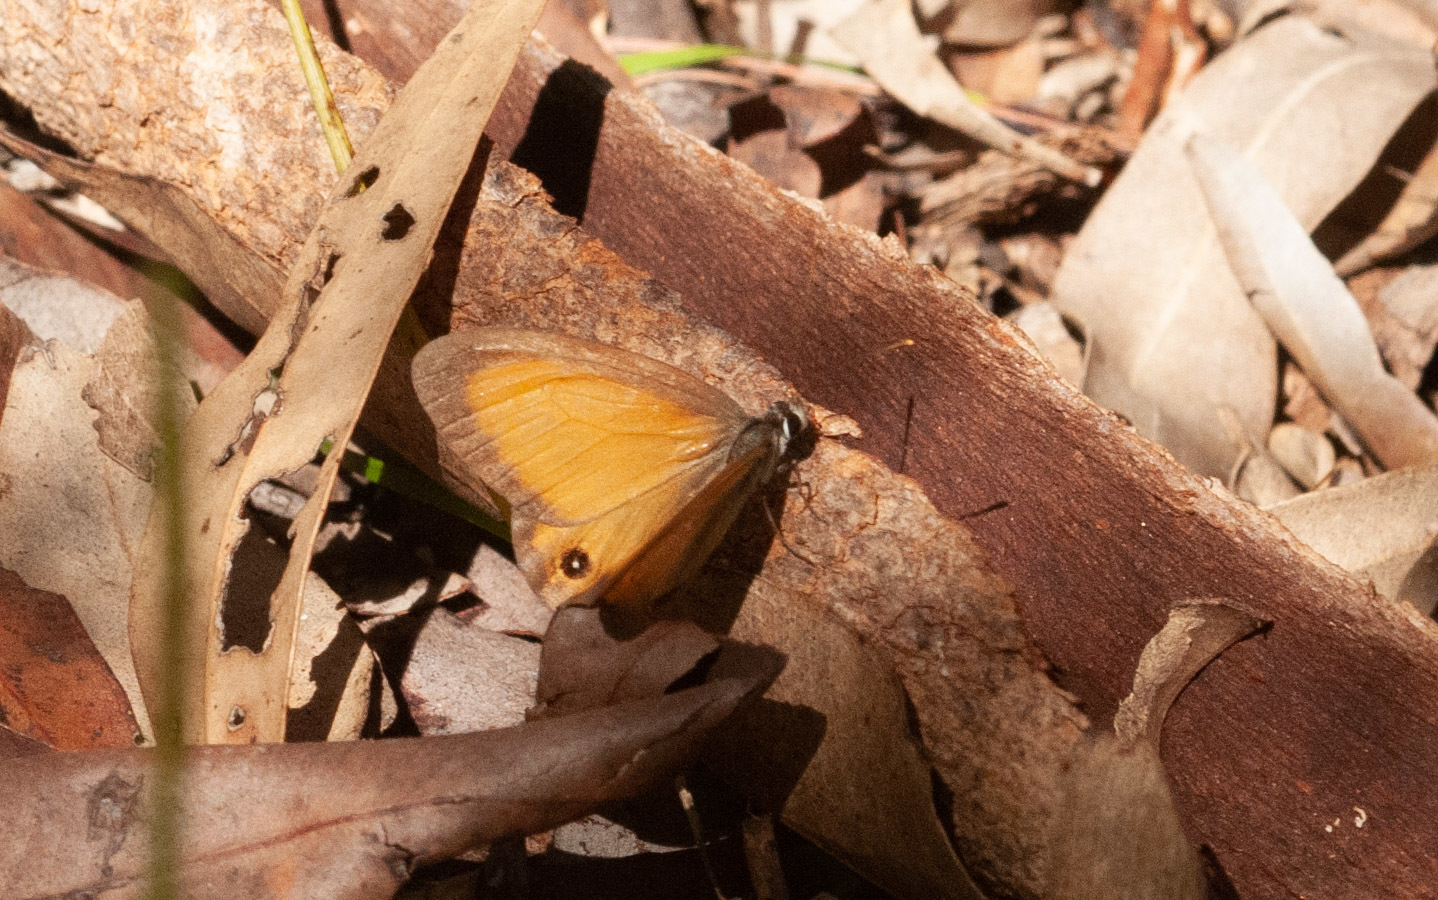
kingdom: Animalia
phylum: Arthropoda
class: Insecta
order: Lepidoptera
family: Nymphalidae
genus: Hypocysta
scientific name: Hypocysta adiante
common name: Orange ringlet
